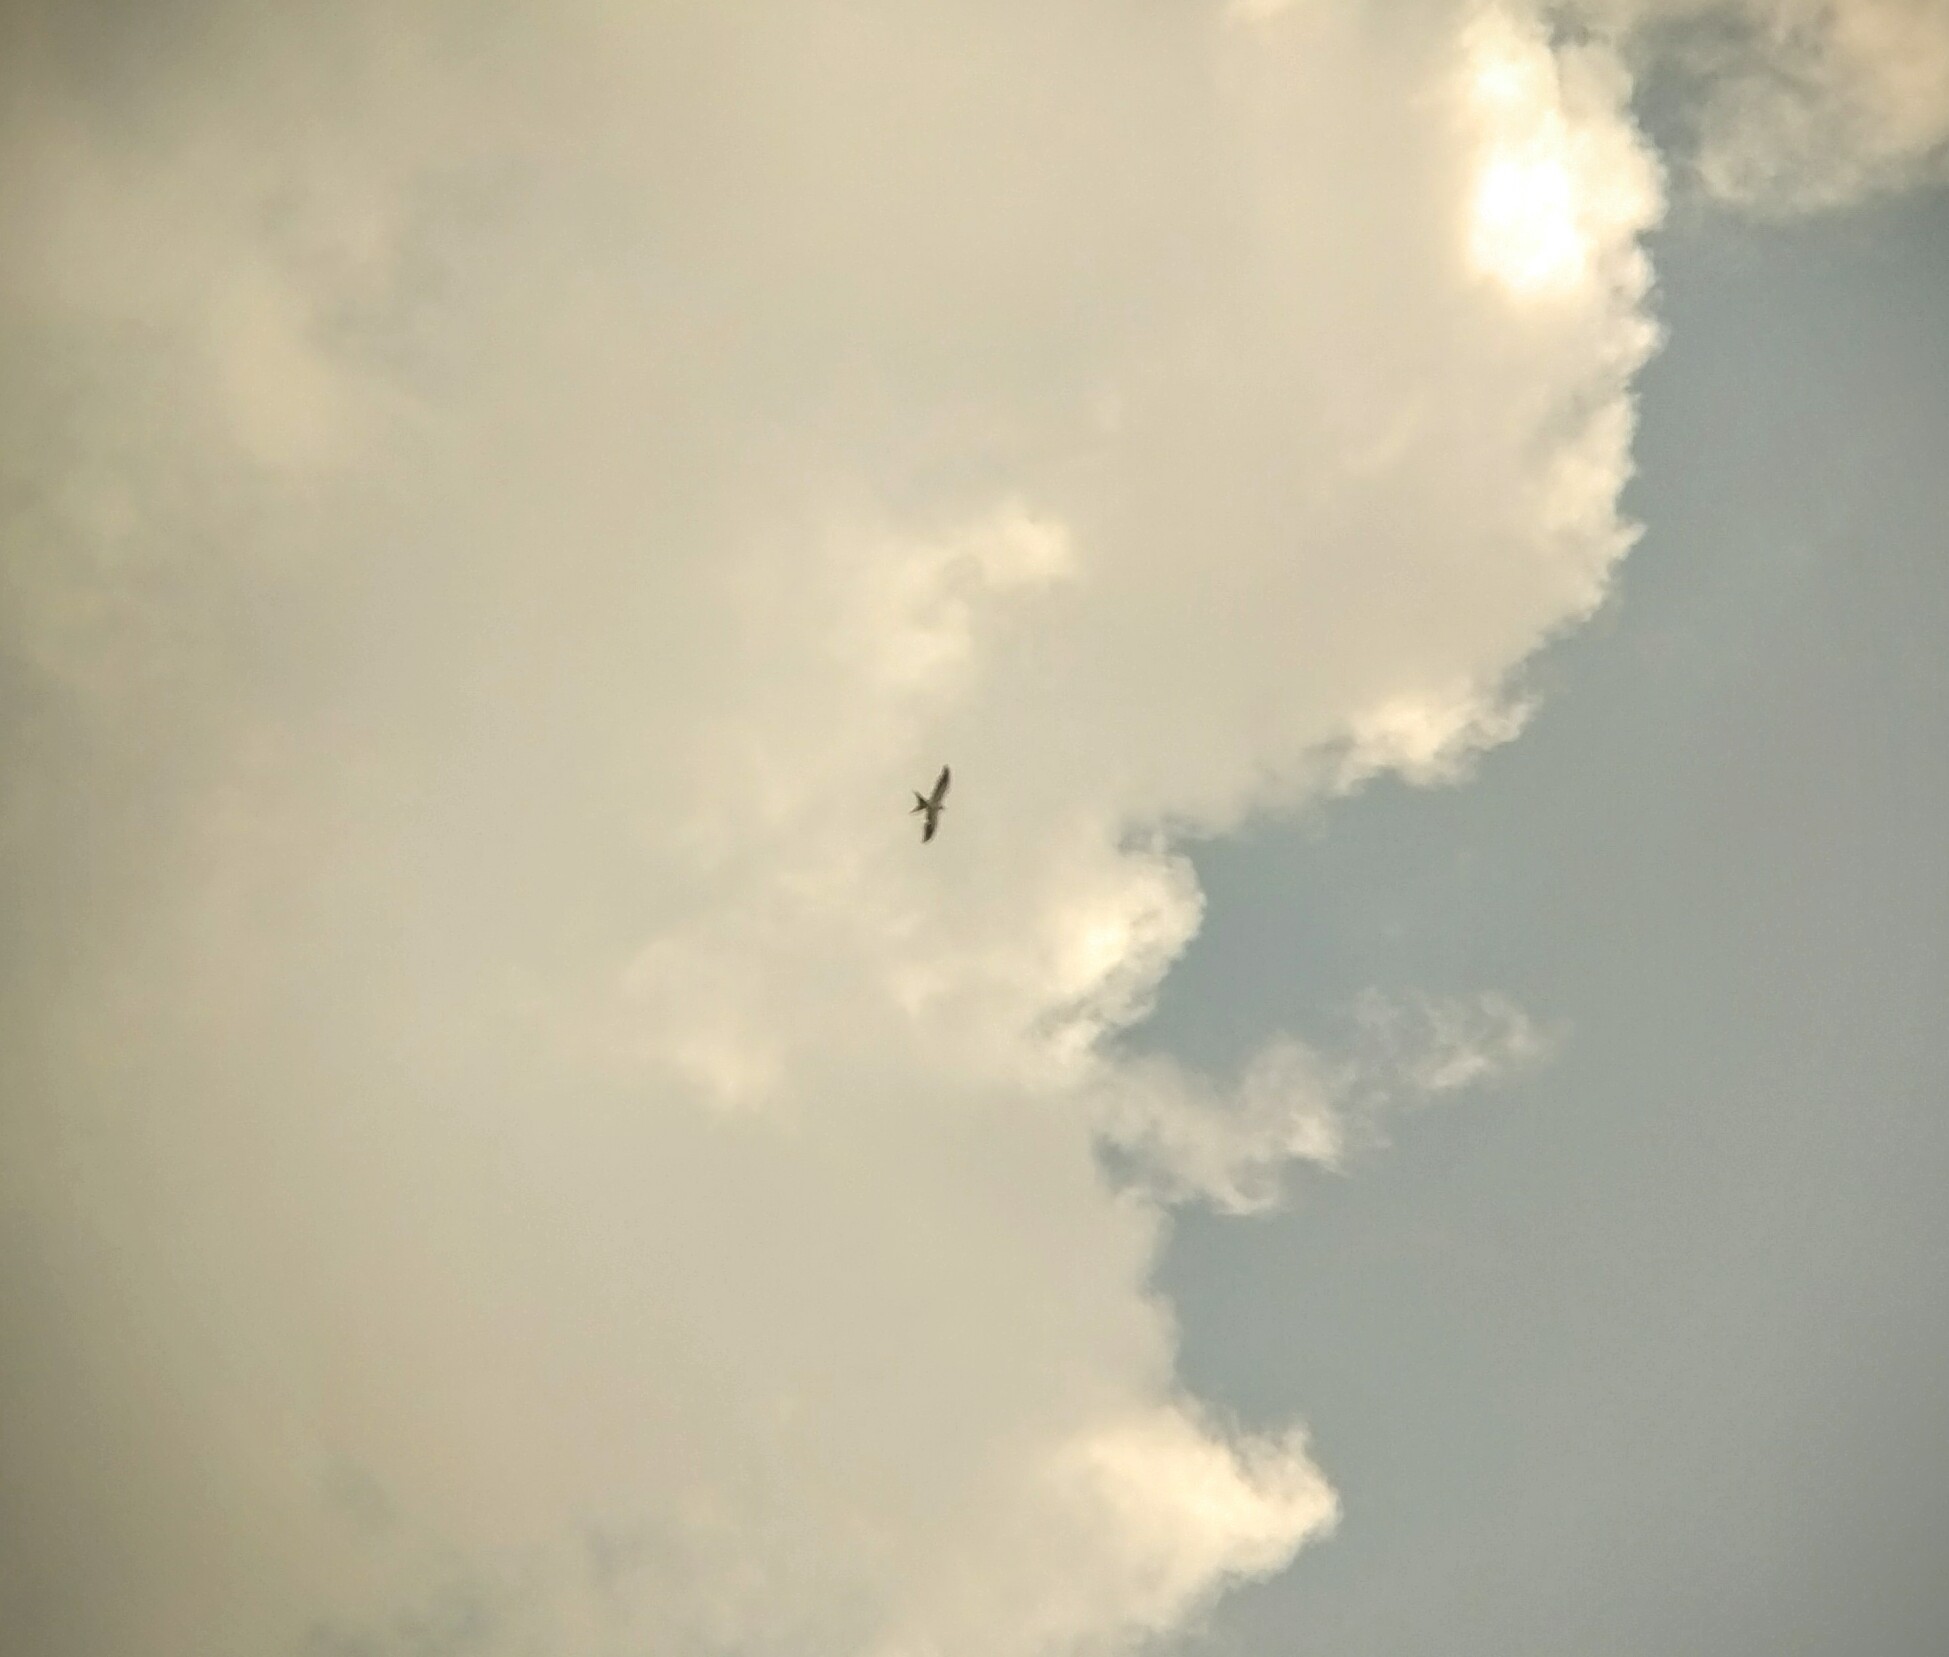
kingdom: Animalia
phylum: Chordata
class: Aves
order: Accipitriformes
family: Accipitridae
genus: Elanoides
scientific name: Elanoides forficatus
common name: Swallow-tailed kite
